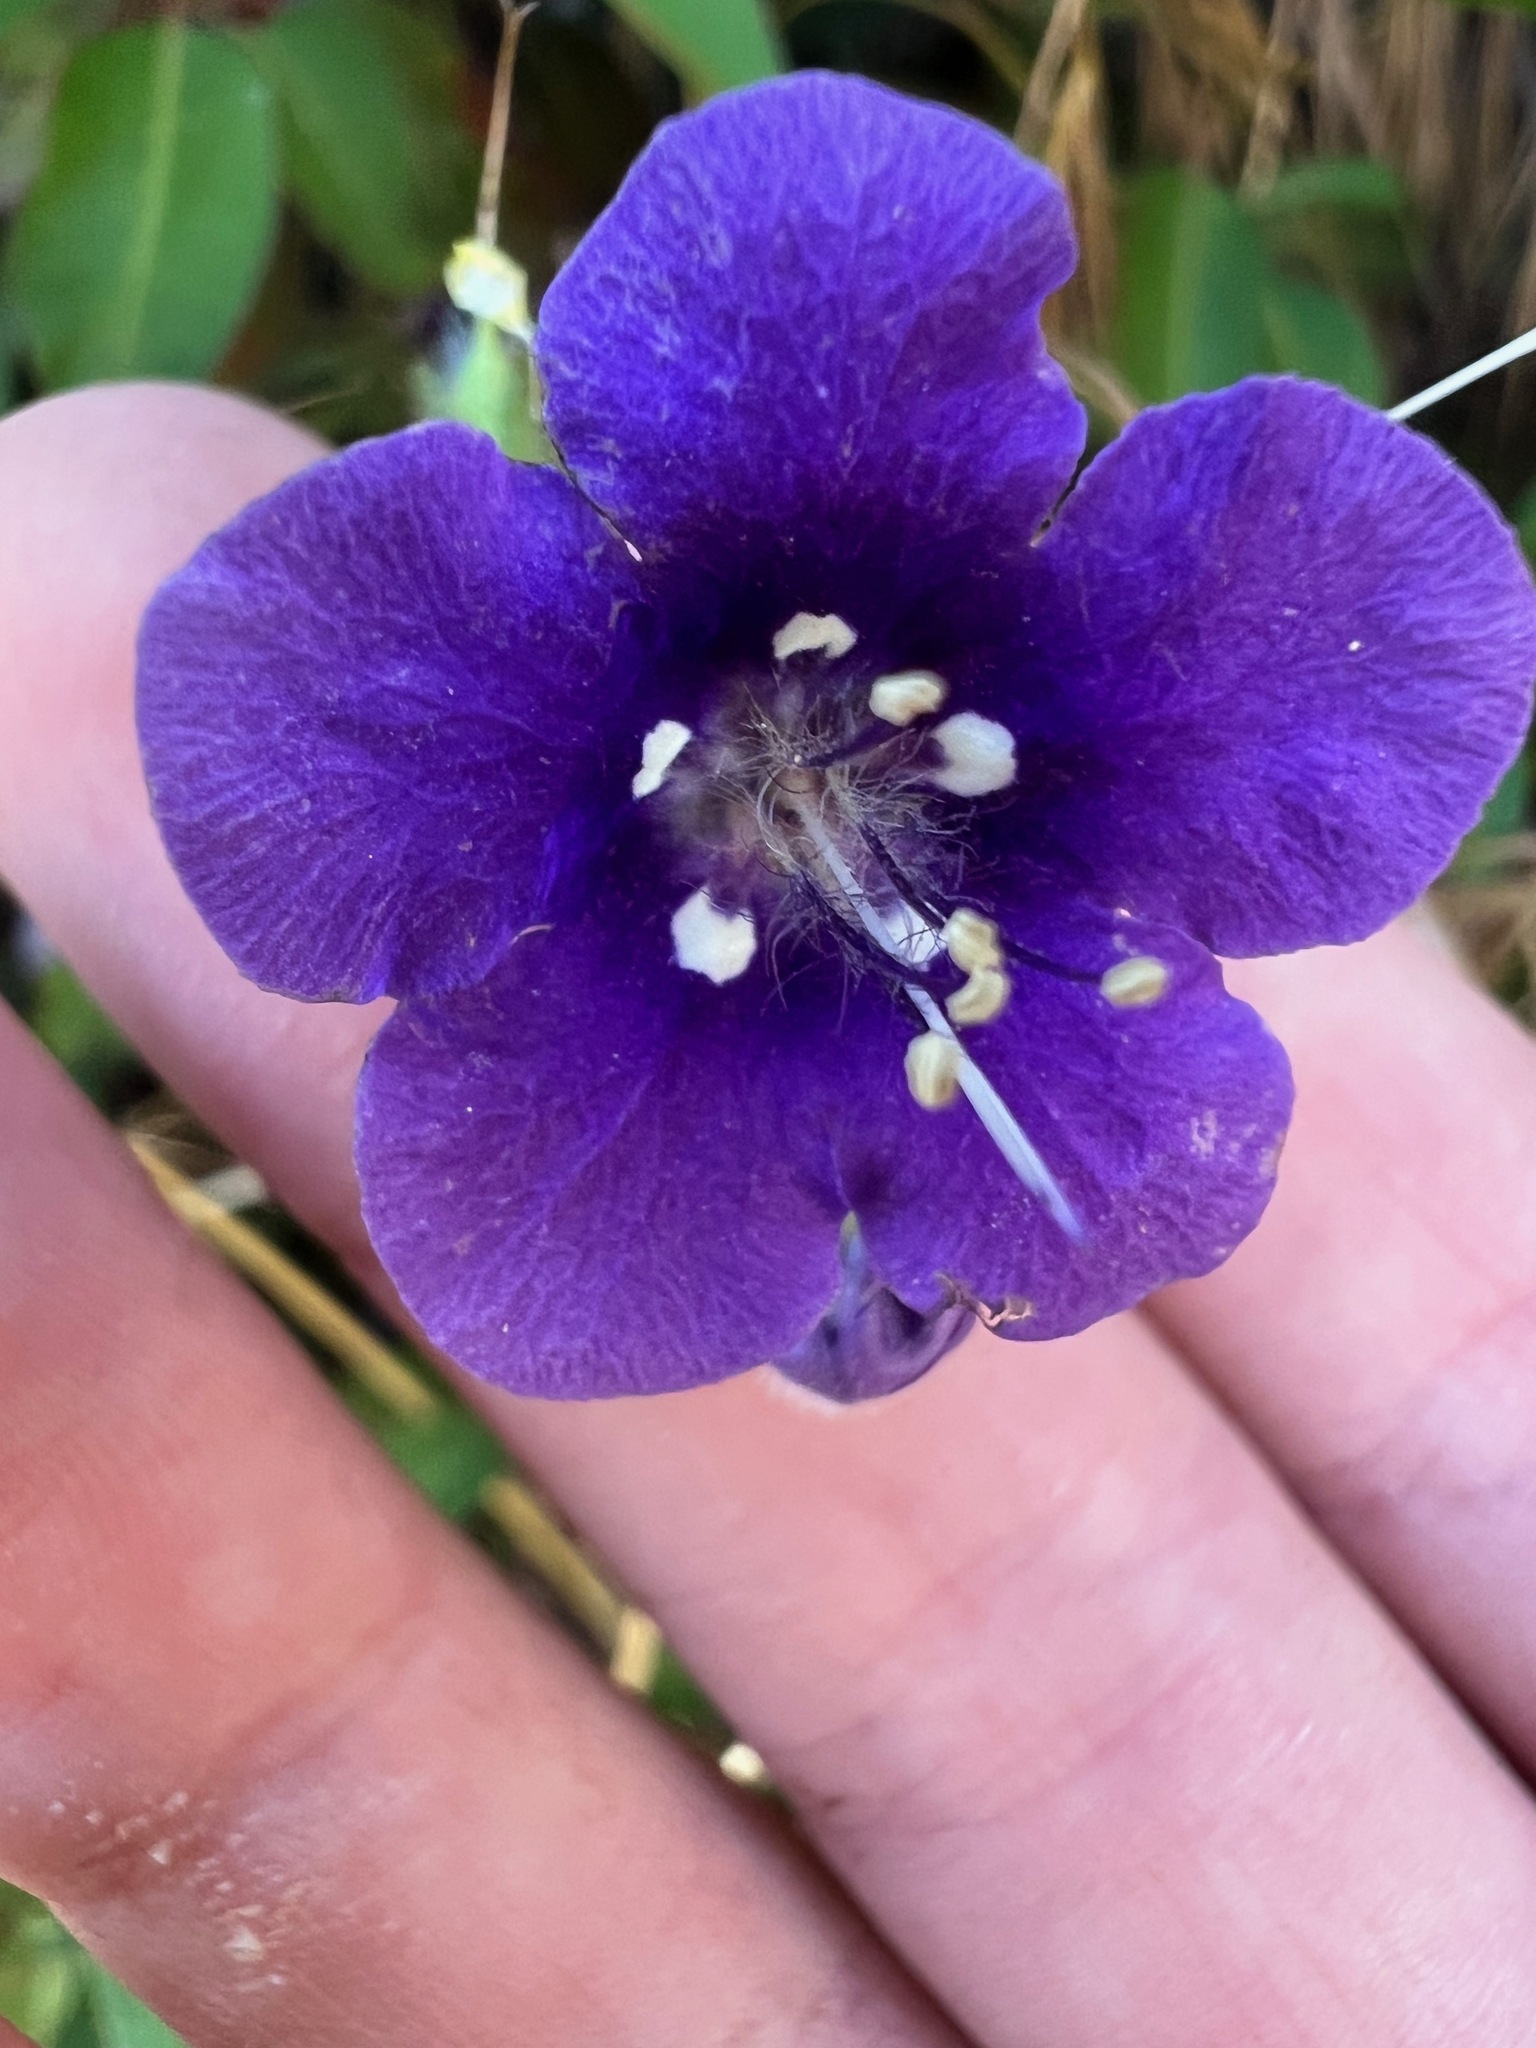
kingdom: Plantae
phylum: Tracheophyta
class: Magnoliopsida
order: Boraginales
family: Hydrophyllaceae
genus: Phacelia
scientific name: Phacelia parryi
